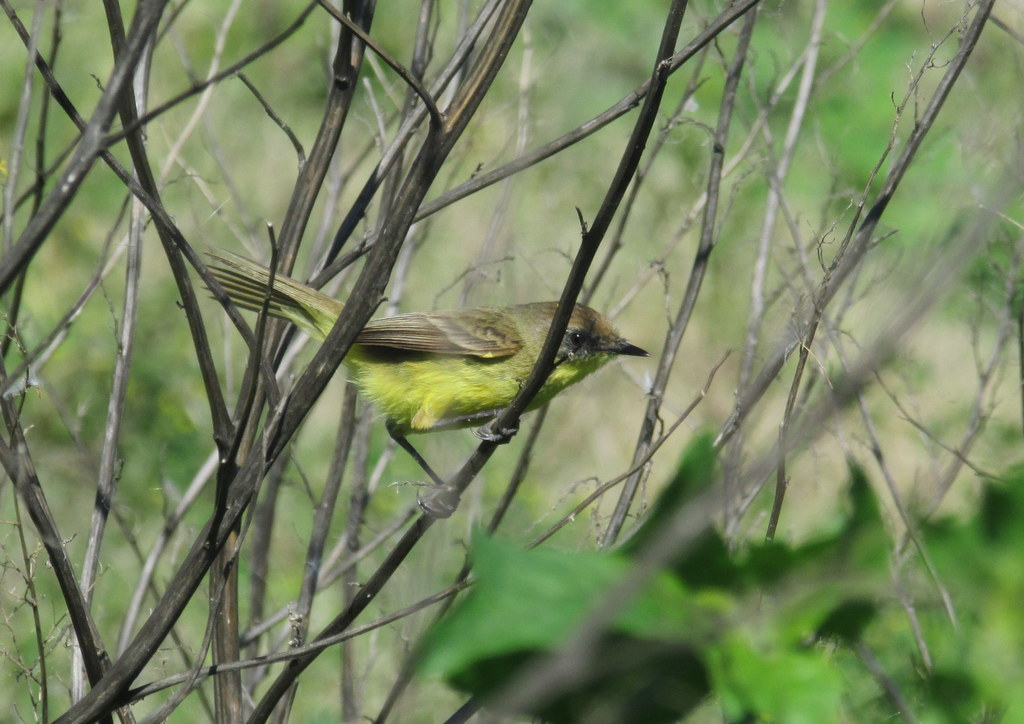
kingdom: Animalia
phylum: Chordata
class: Aves
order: Passeriformes
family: Tyrannidae
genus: Pseudocolopteryx
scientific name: Pseudocolopteryx flaviventris
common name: Warbling doradito
